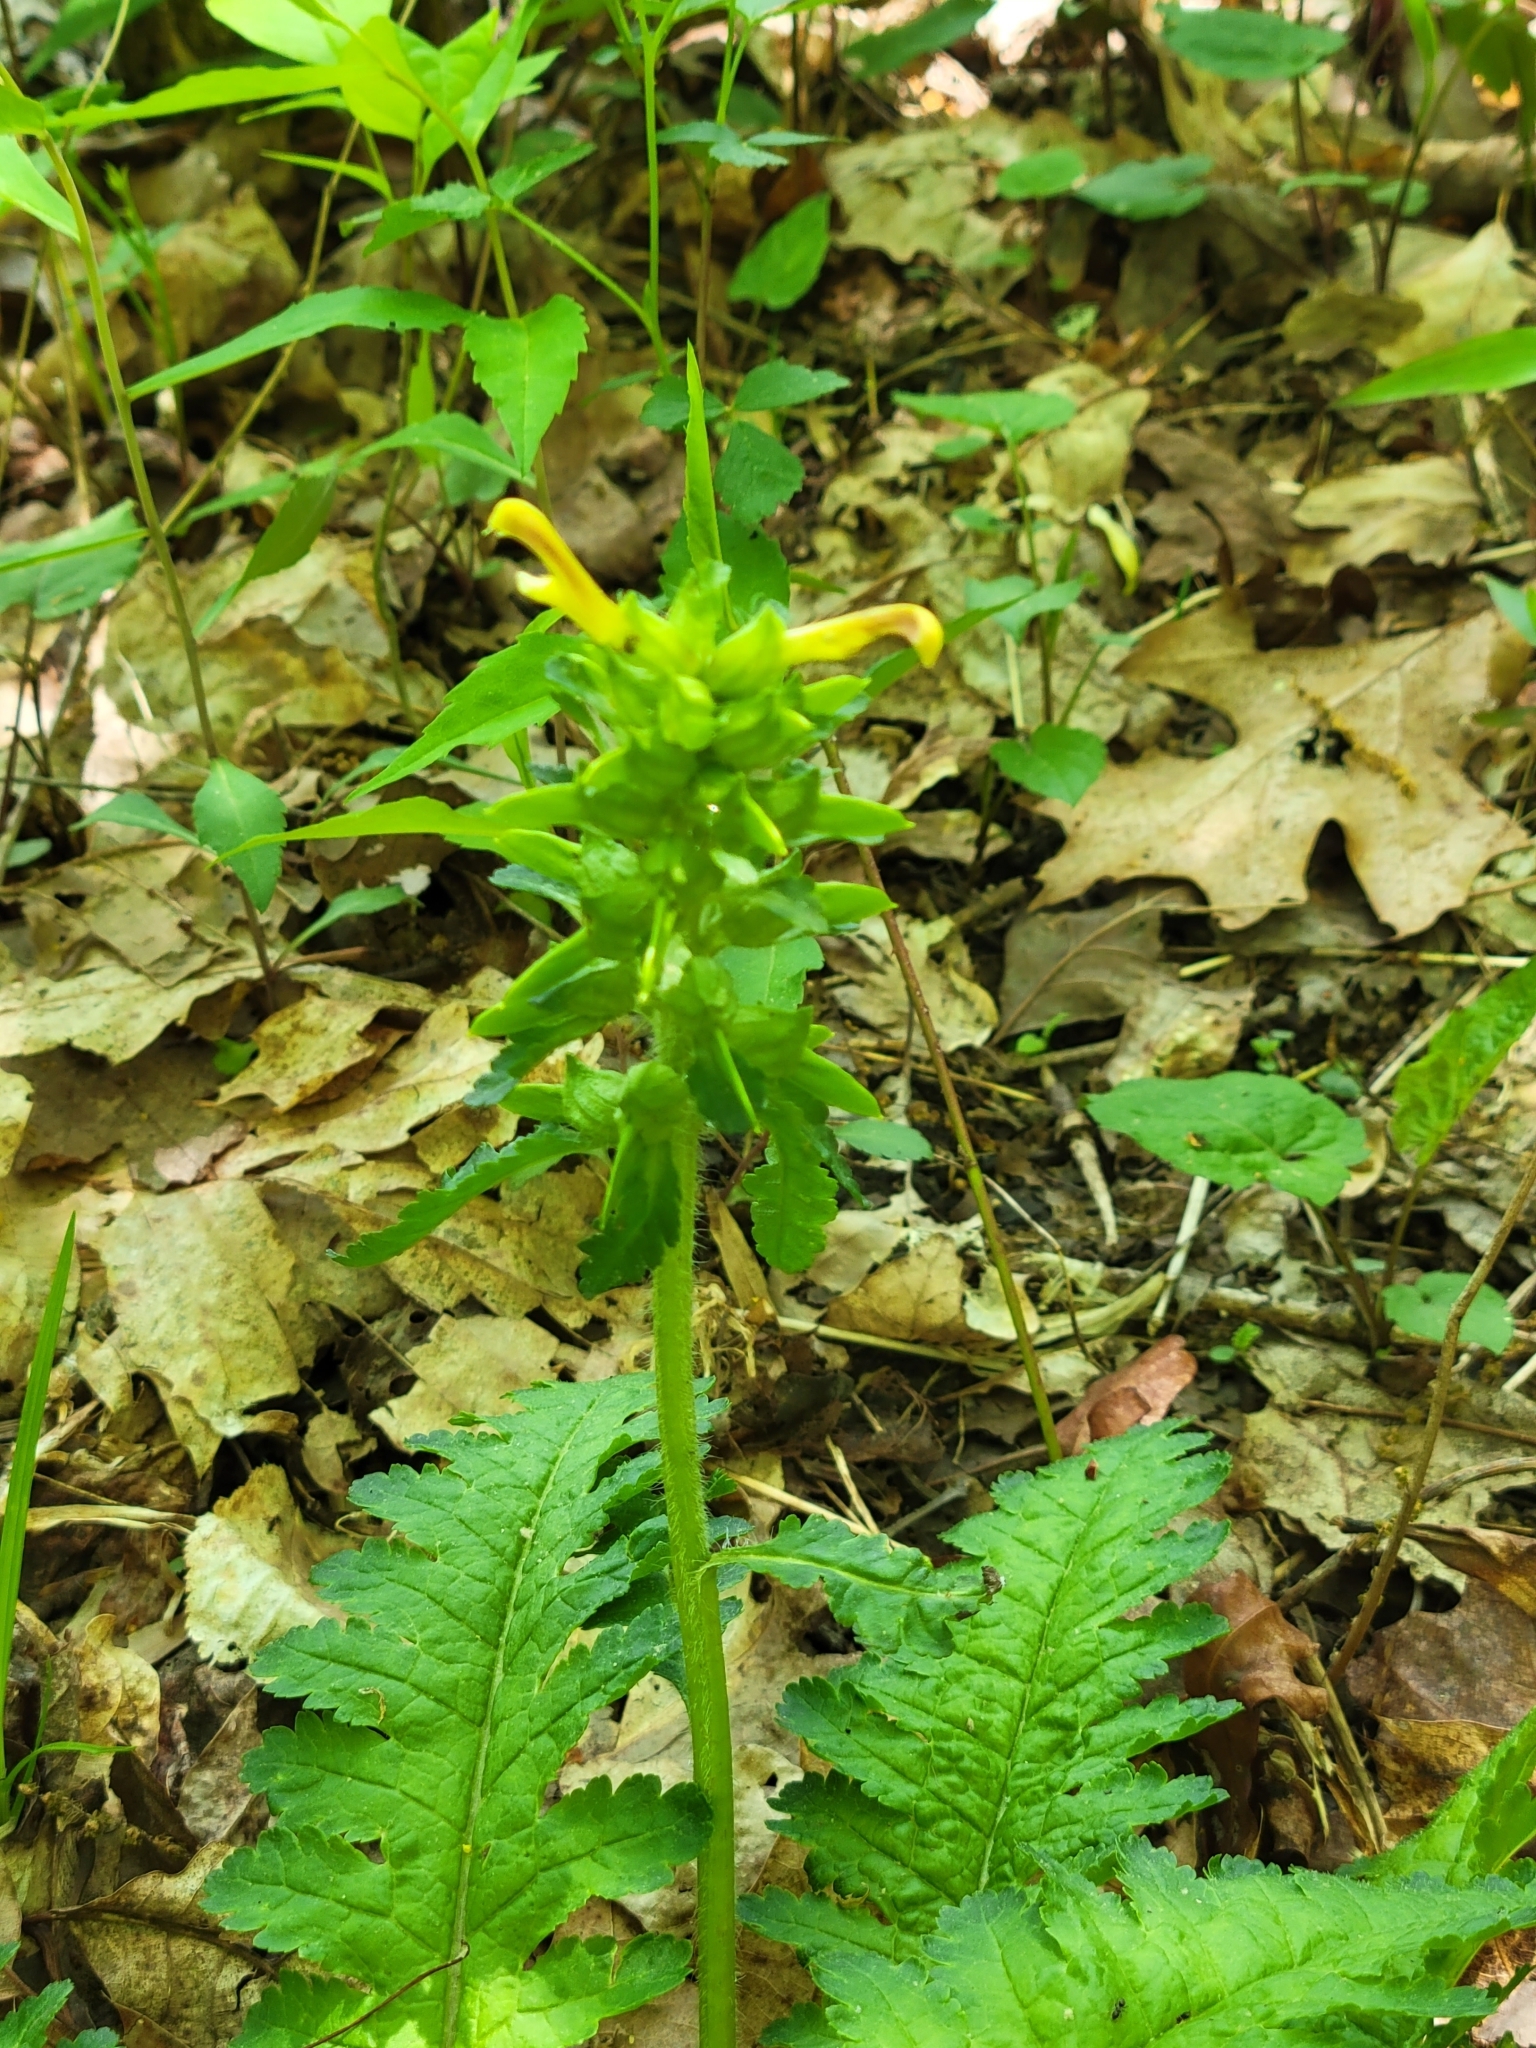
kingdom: Plantae
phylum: Tracheophyta
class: Magnoliopsida
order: Lamiales
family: Orobanchaceae
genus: Pedicularis
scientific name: Pedicularis canadensis
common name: Early lousewort
